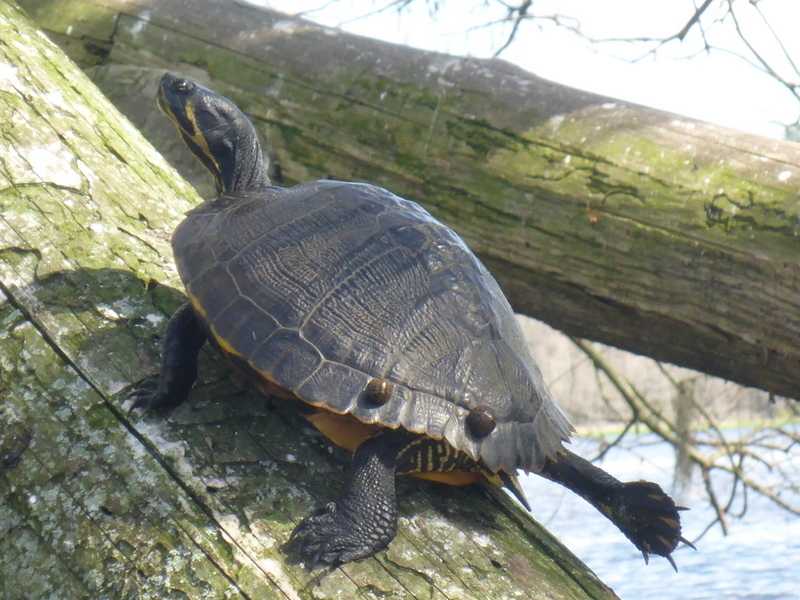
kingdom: Animalia
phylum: Chordata
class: Testudines
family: Emydidae
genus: Trachemys
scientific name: Trachemys scripta
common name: Slider
